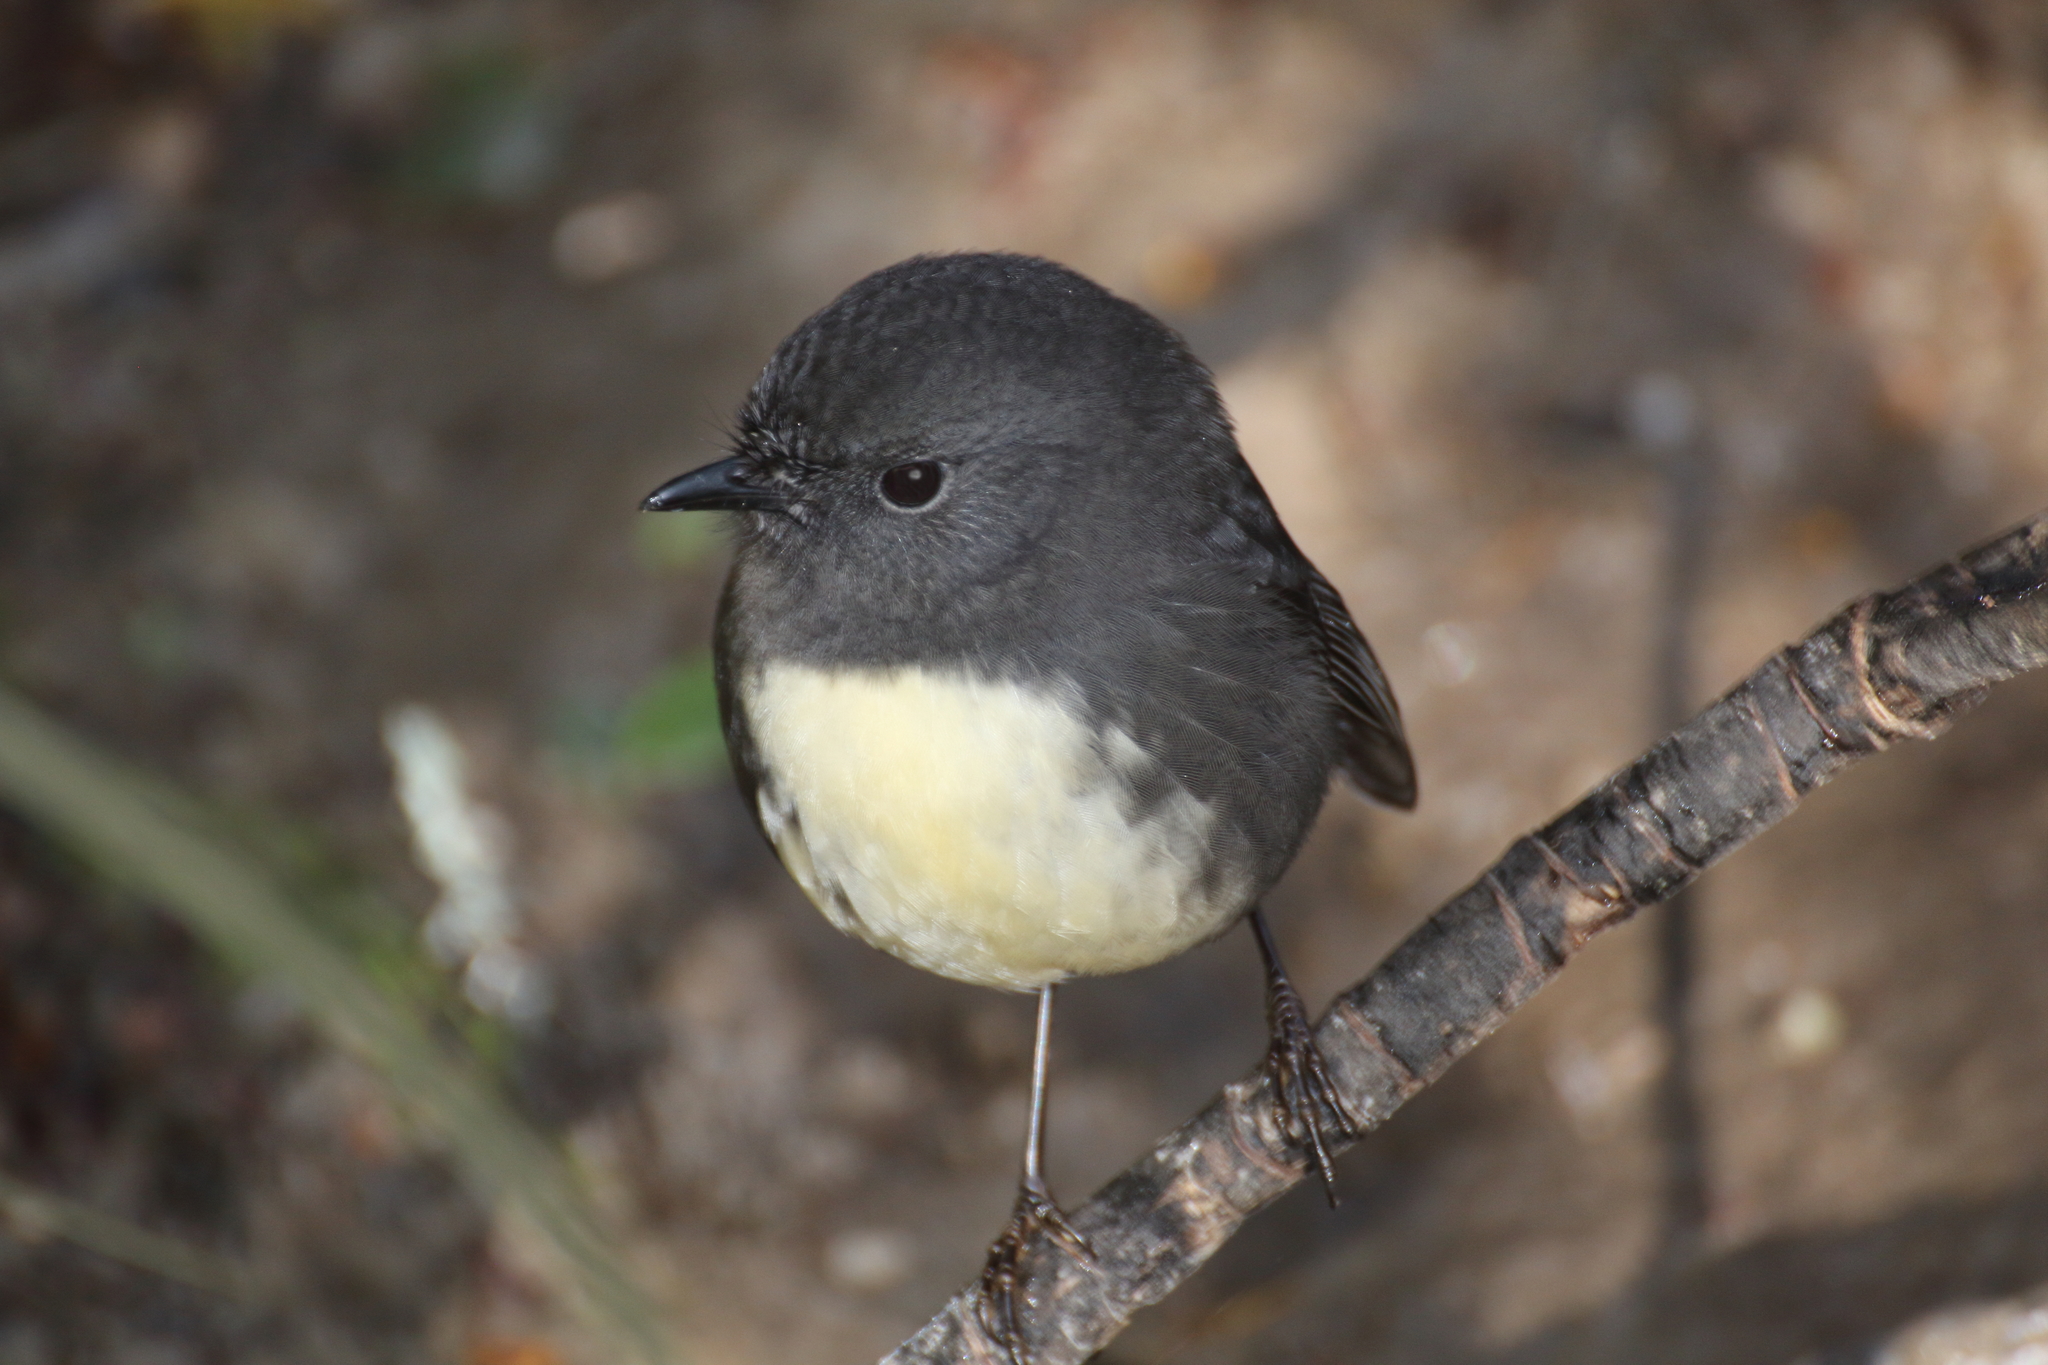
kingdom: Animalia
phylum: Chordata
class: Aves
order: Passeriformes
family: Petroicidae
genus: Petroica
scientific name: Petroica australis
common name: New zealand robin
